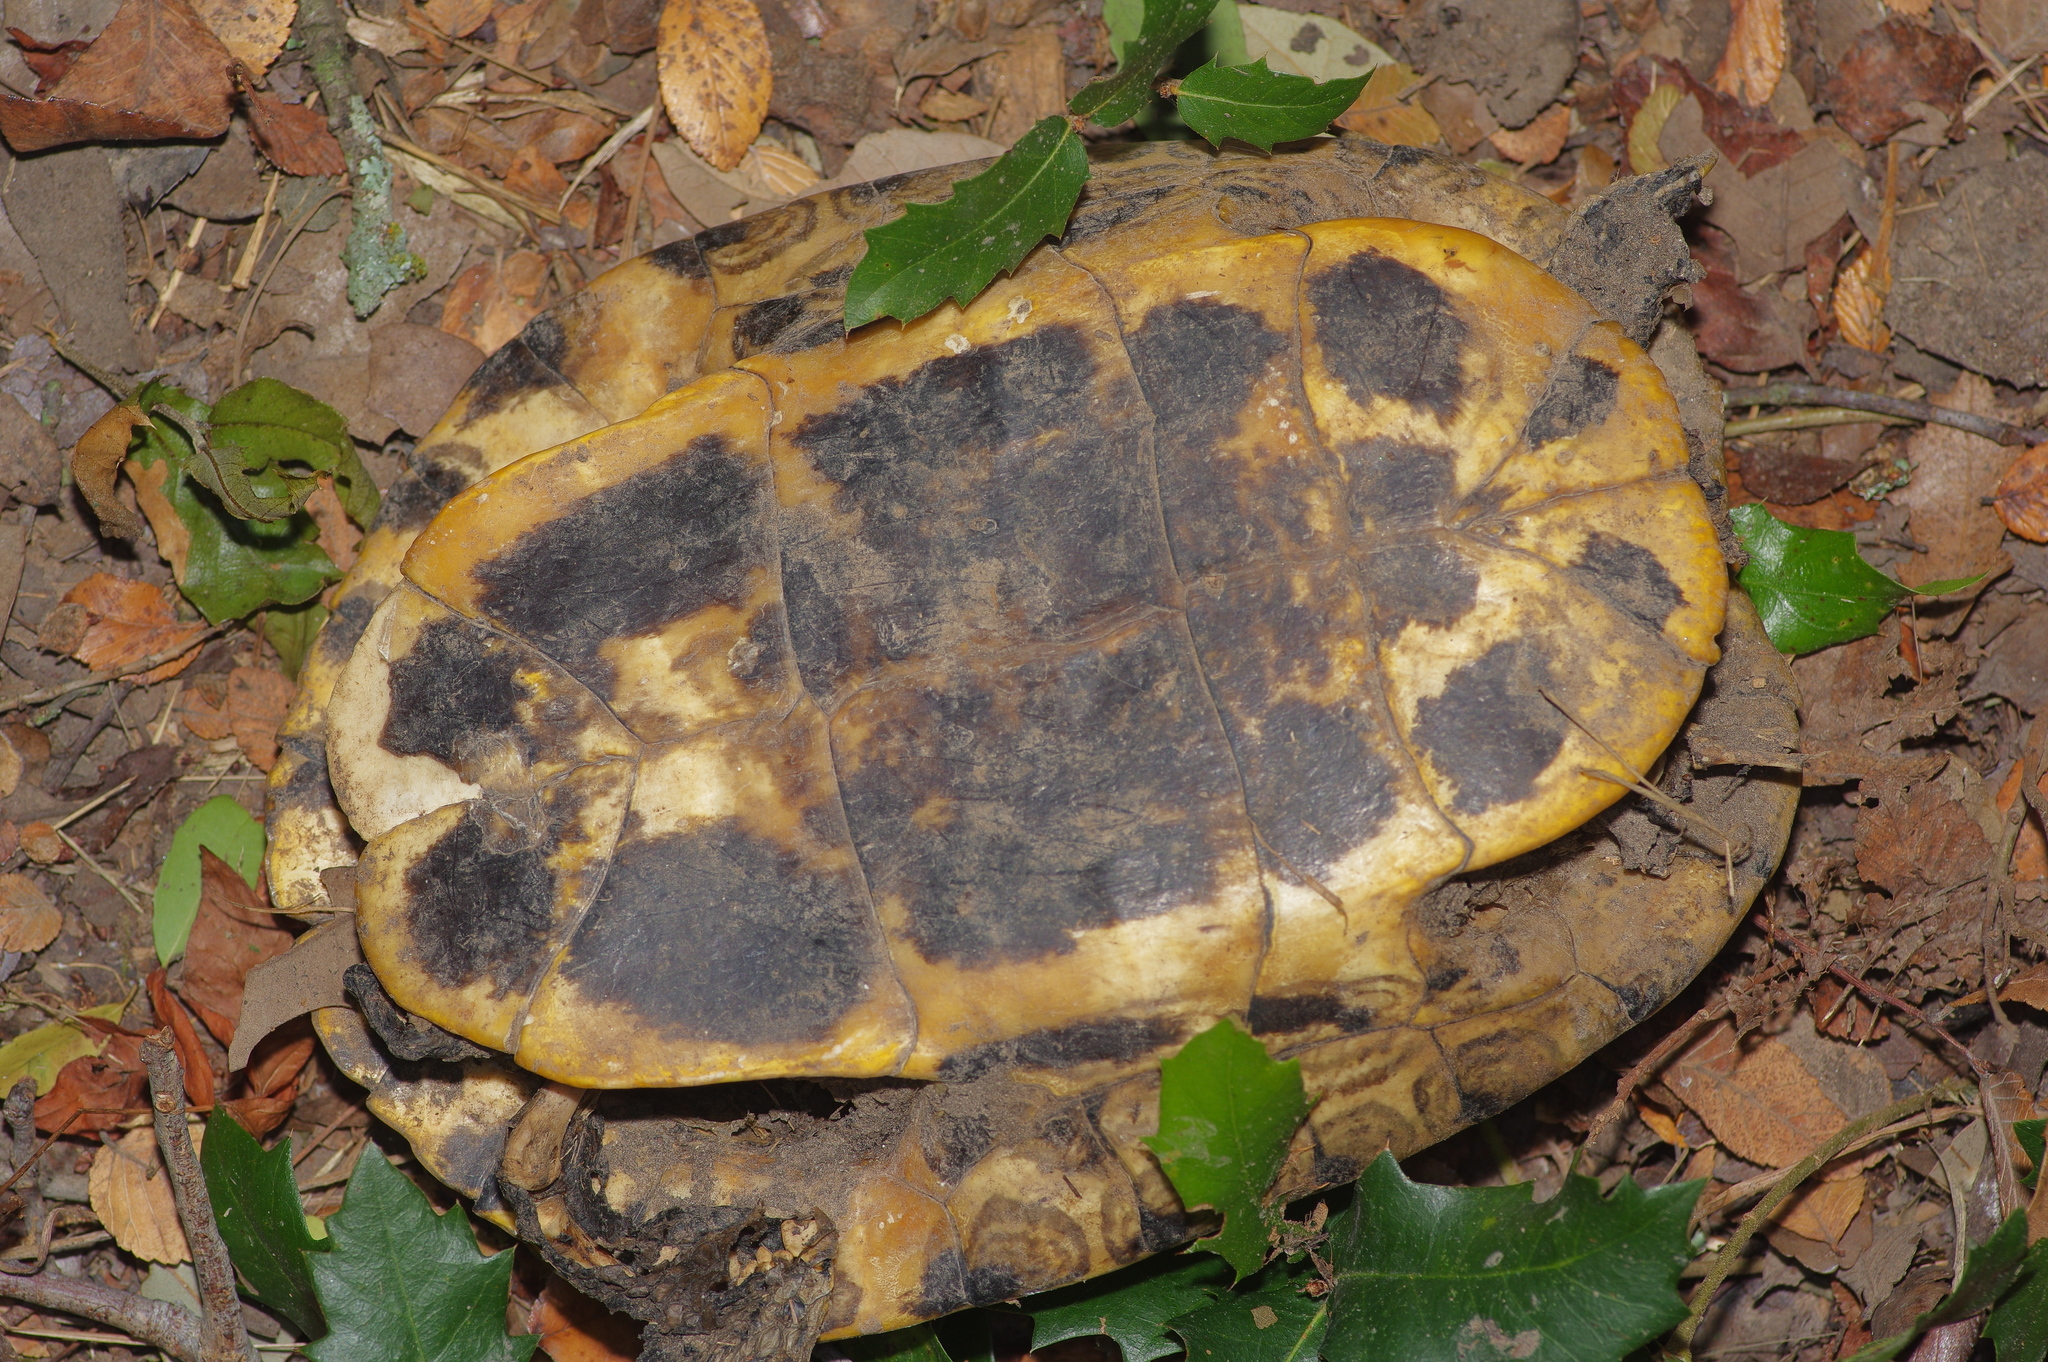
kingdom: Animalia
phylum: Chordata
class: Testudines
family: Emydidae
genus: Trachemys
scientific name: Trachemys scripta
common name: Slider
